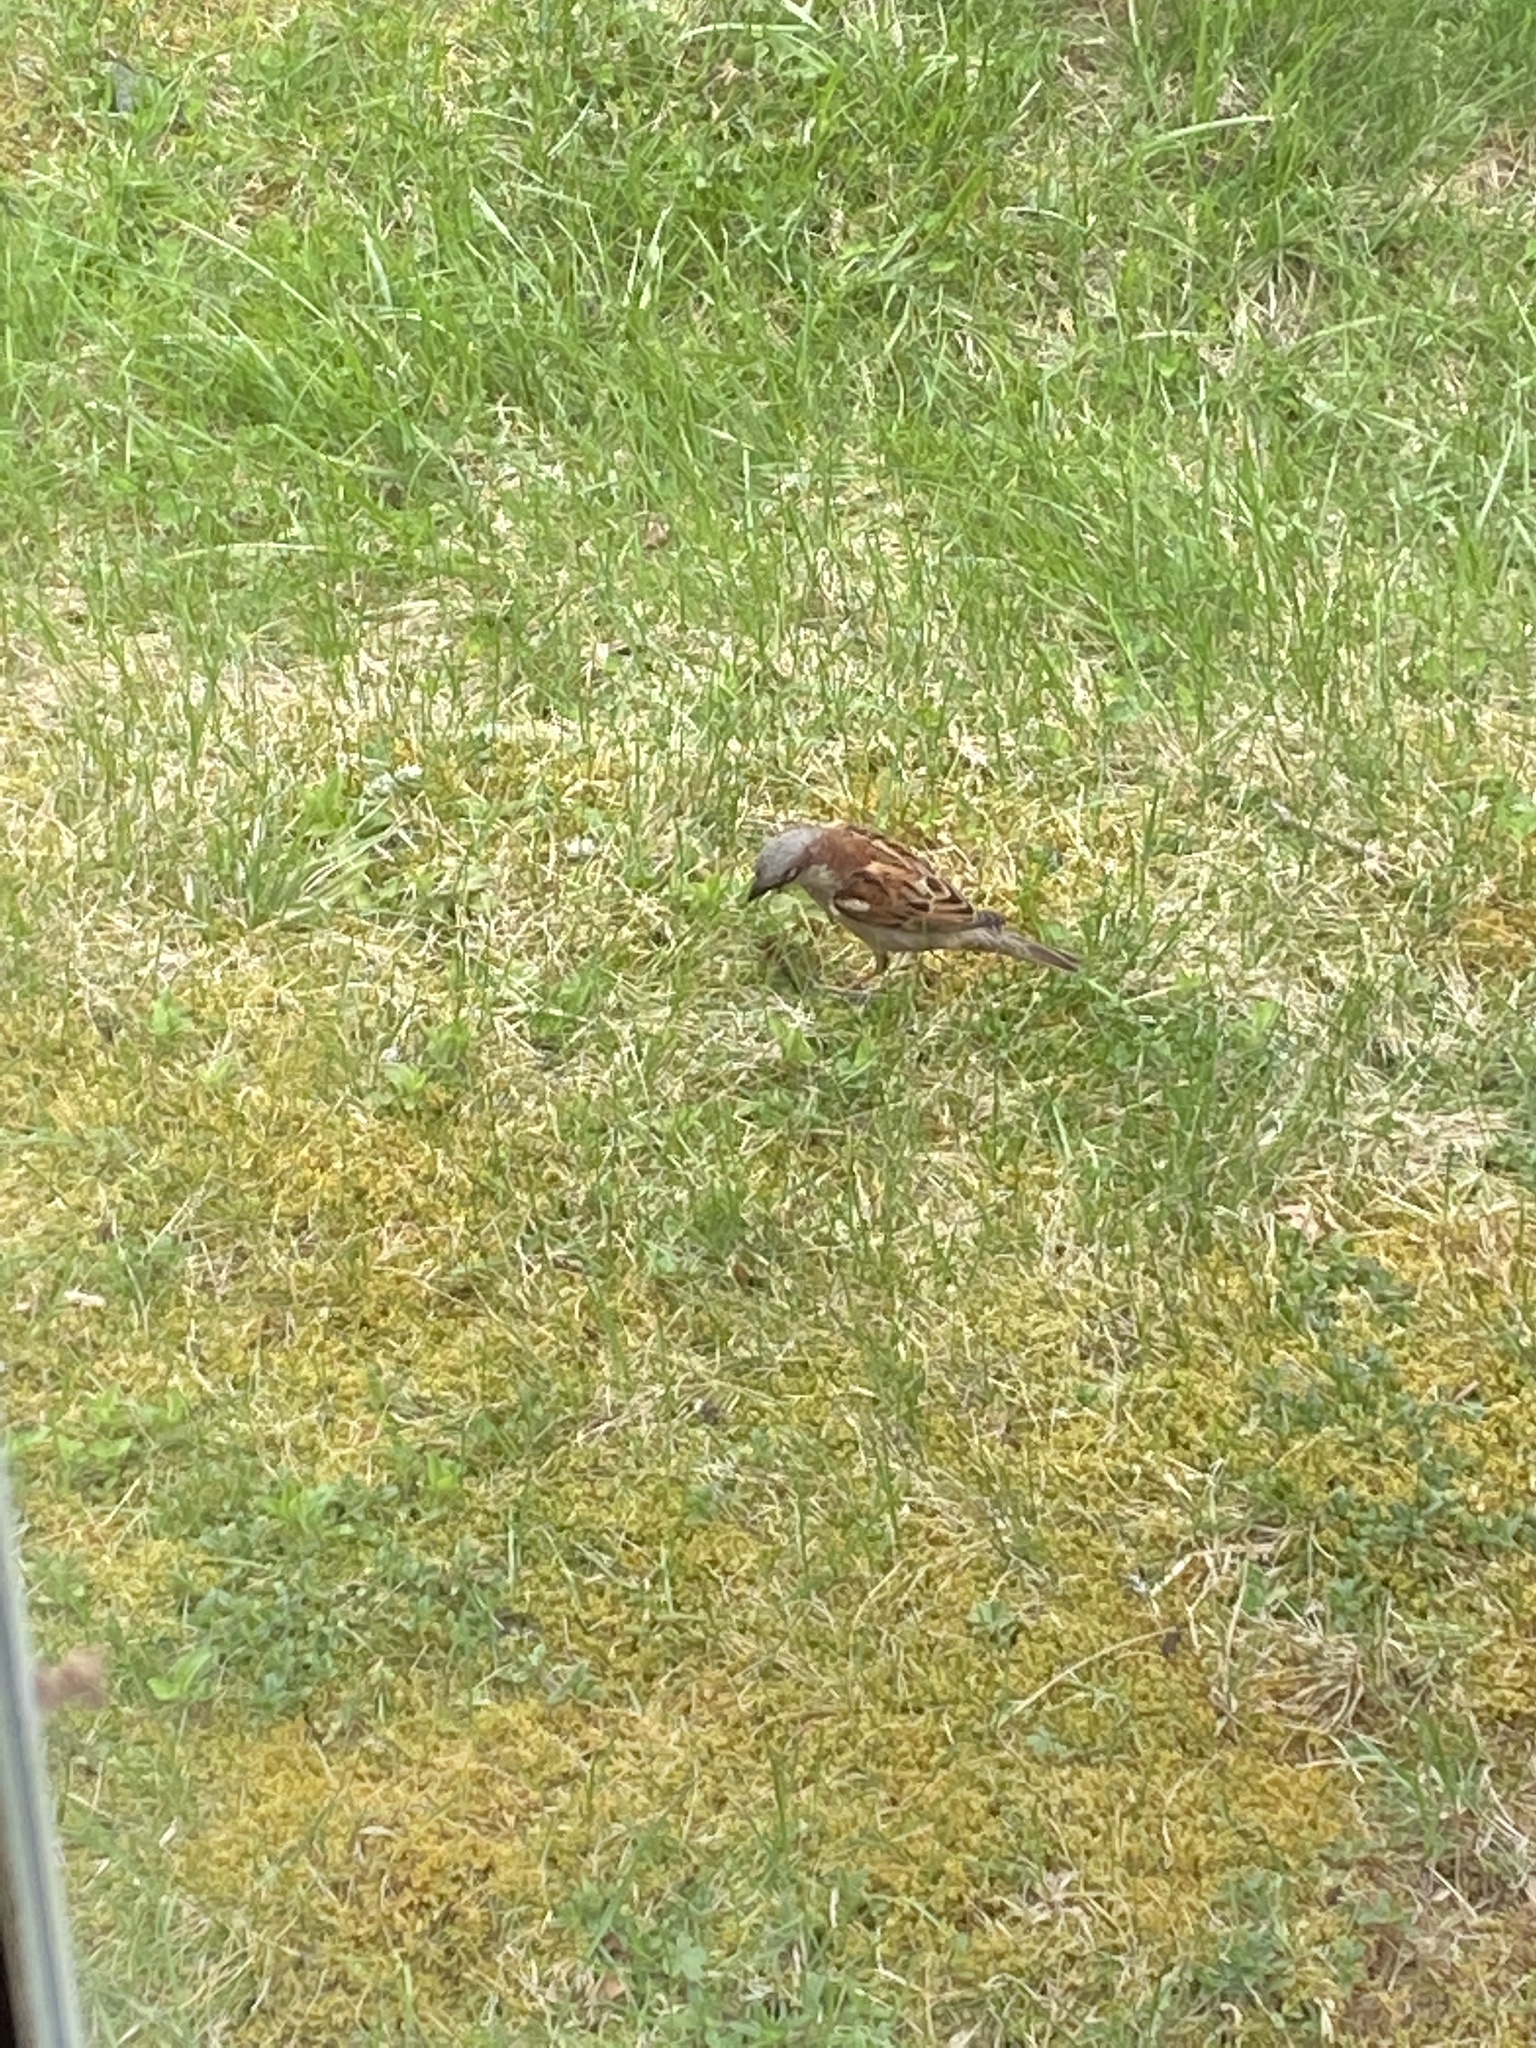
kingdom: Animalia
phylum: Chordata
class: Aves
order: Passeriformes
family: Passeridae
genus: Passer
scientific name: Passer domesticus
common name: House sparrow
